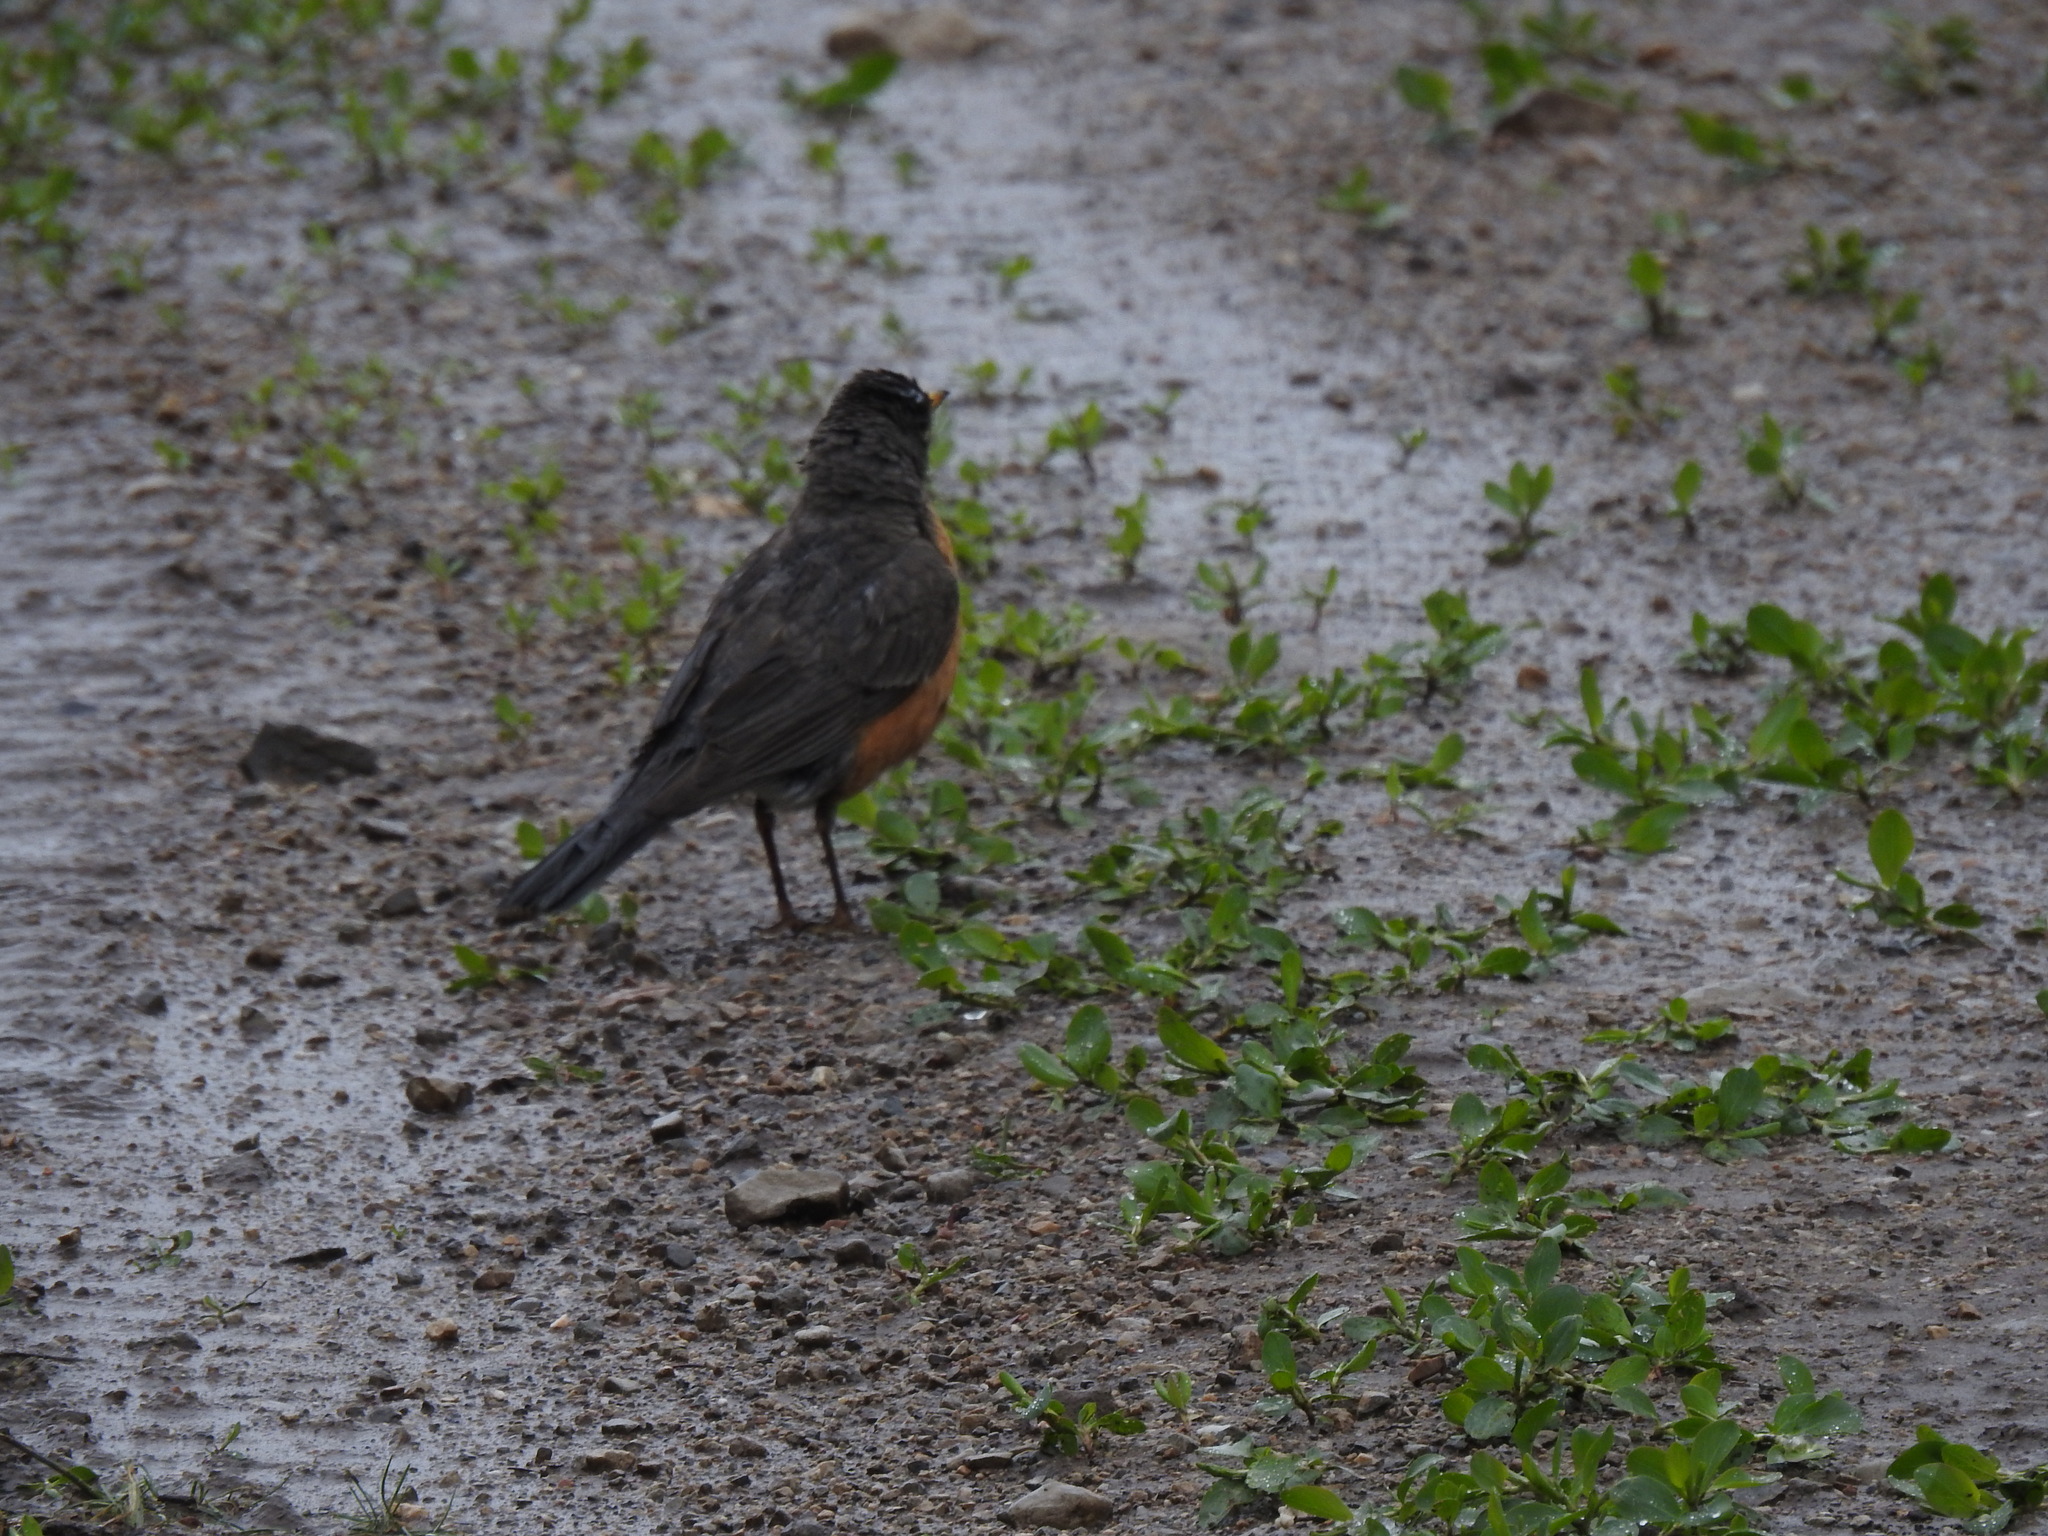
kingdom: Animalia
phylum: Chordata
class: Aves
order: Passeriformes
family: Turdidae
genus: Turdus
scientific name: Turdus migratorius
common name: American robin
